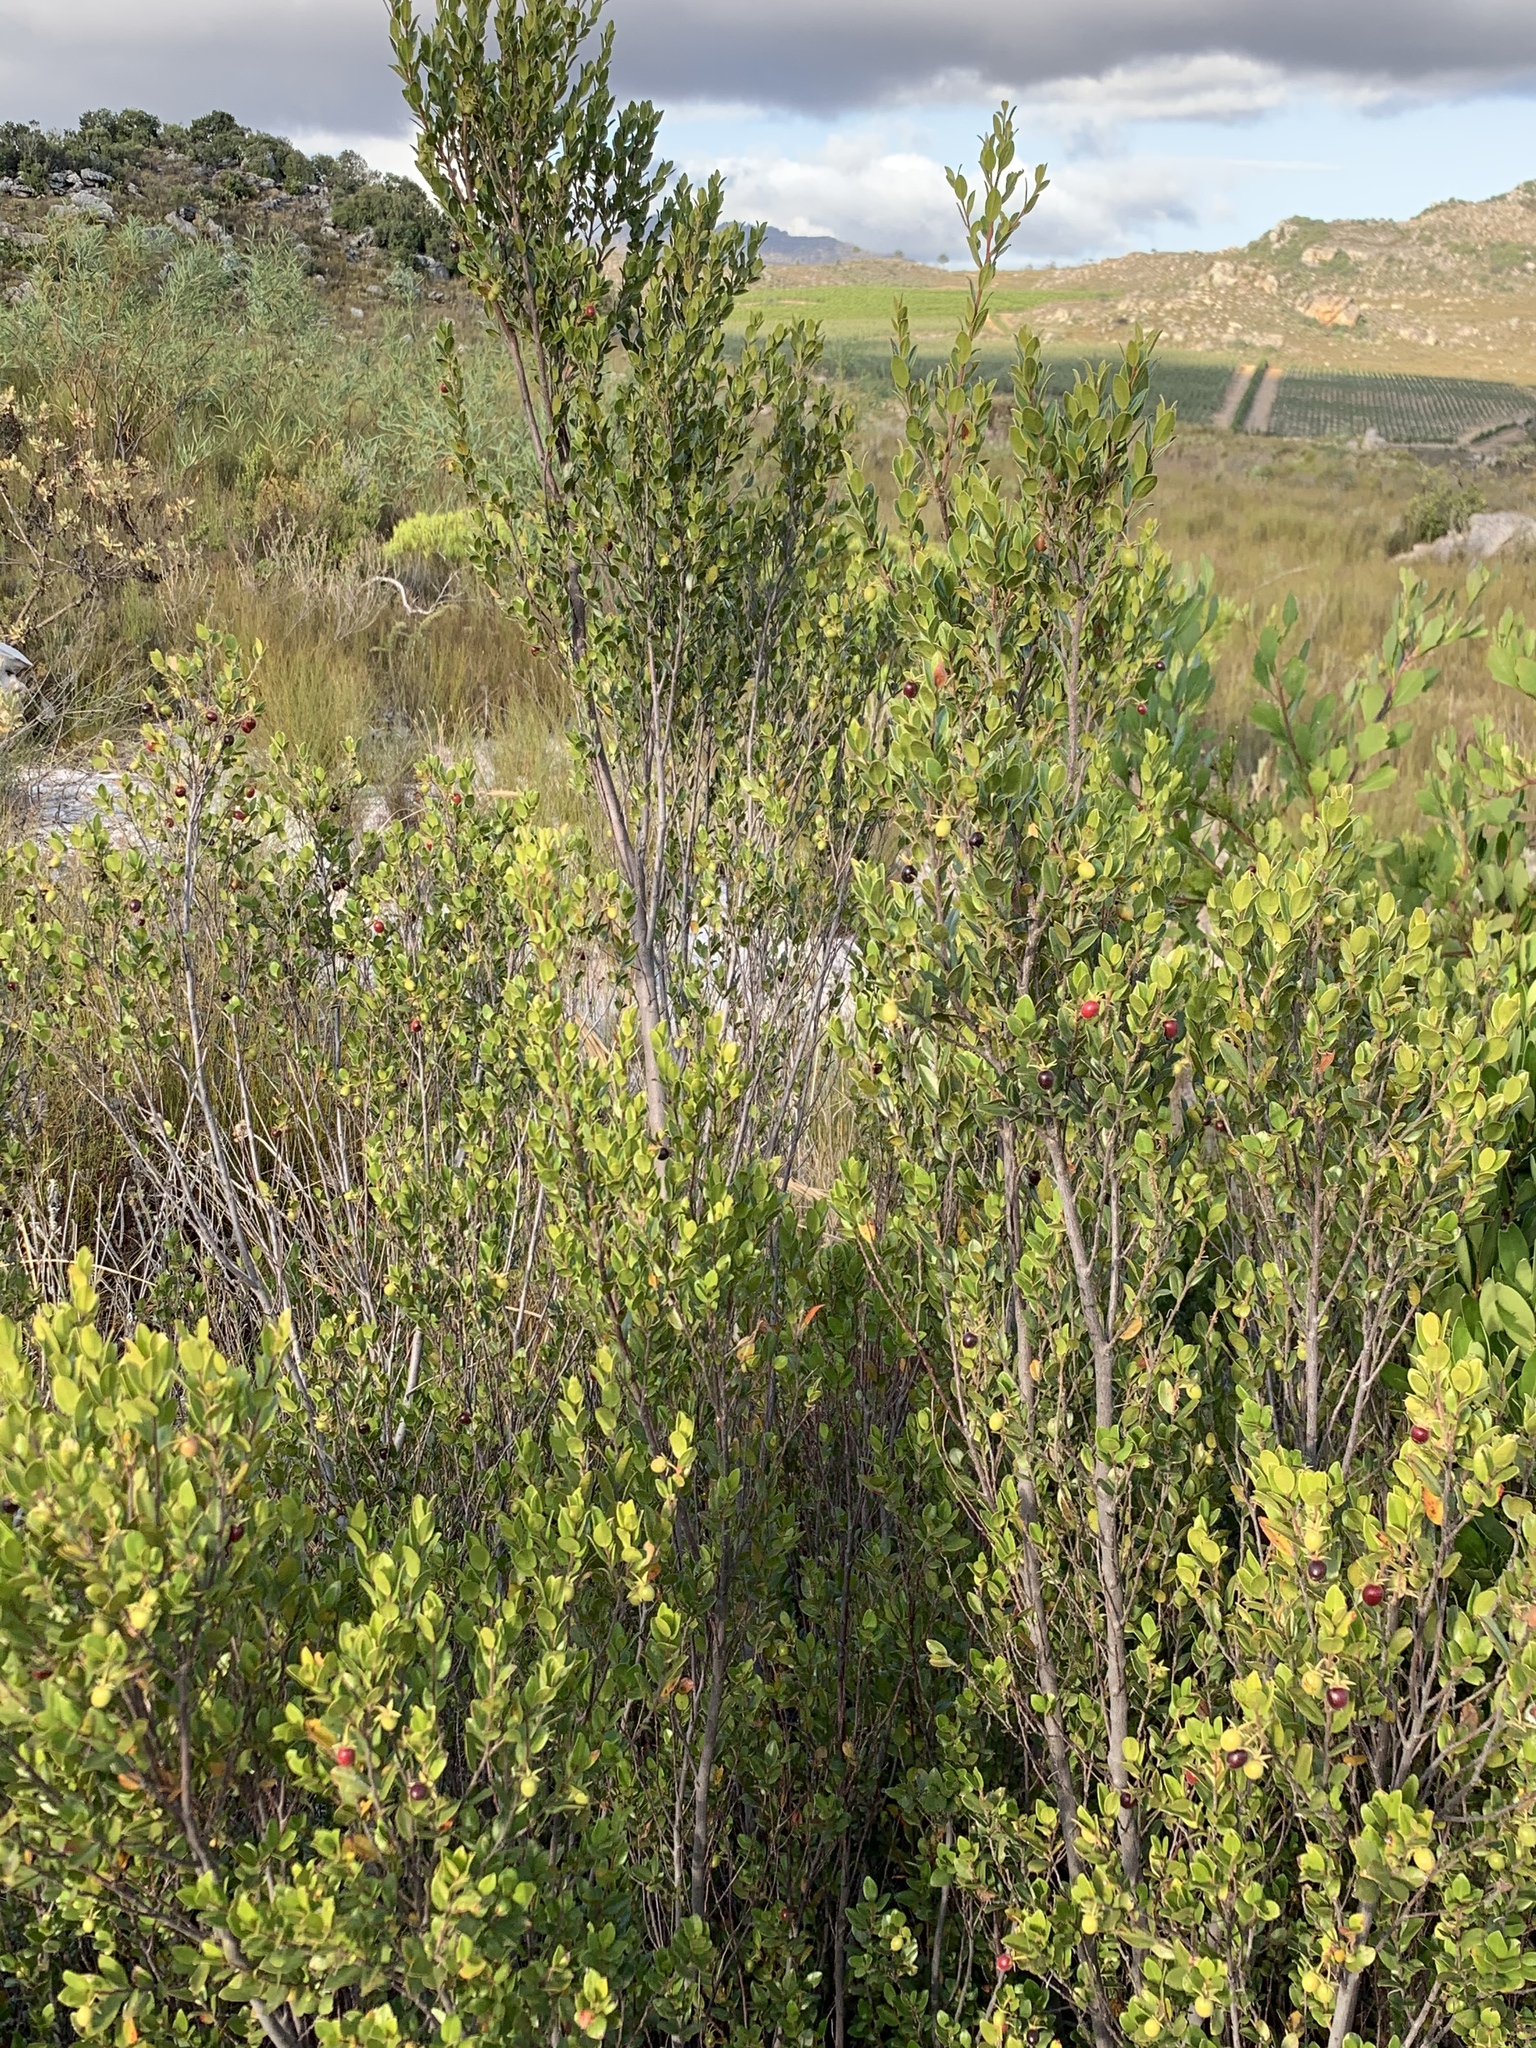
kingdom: Plantae
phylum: Tracheophyta
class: Magnoliopsida
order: Ericales
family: Ebenaceae
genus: Diospyros
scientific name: Diospyros glabra
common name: Fynbos star apple
